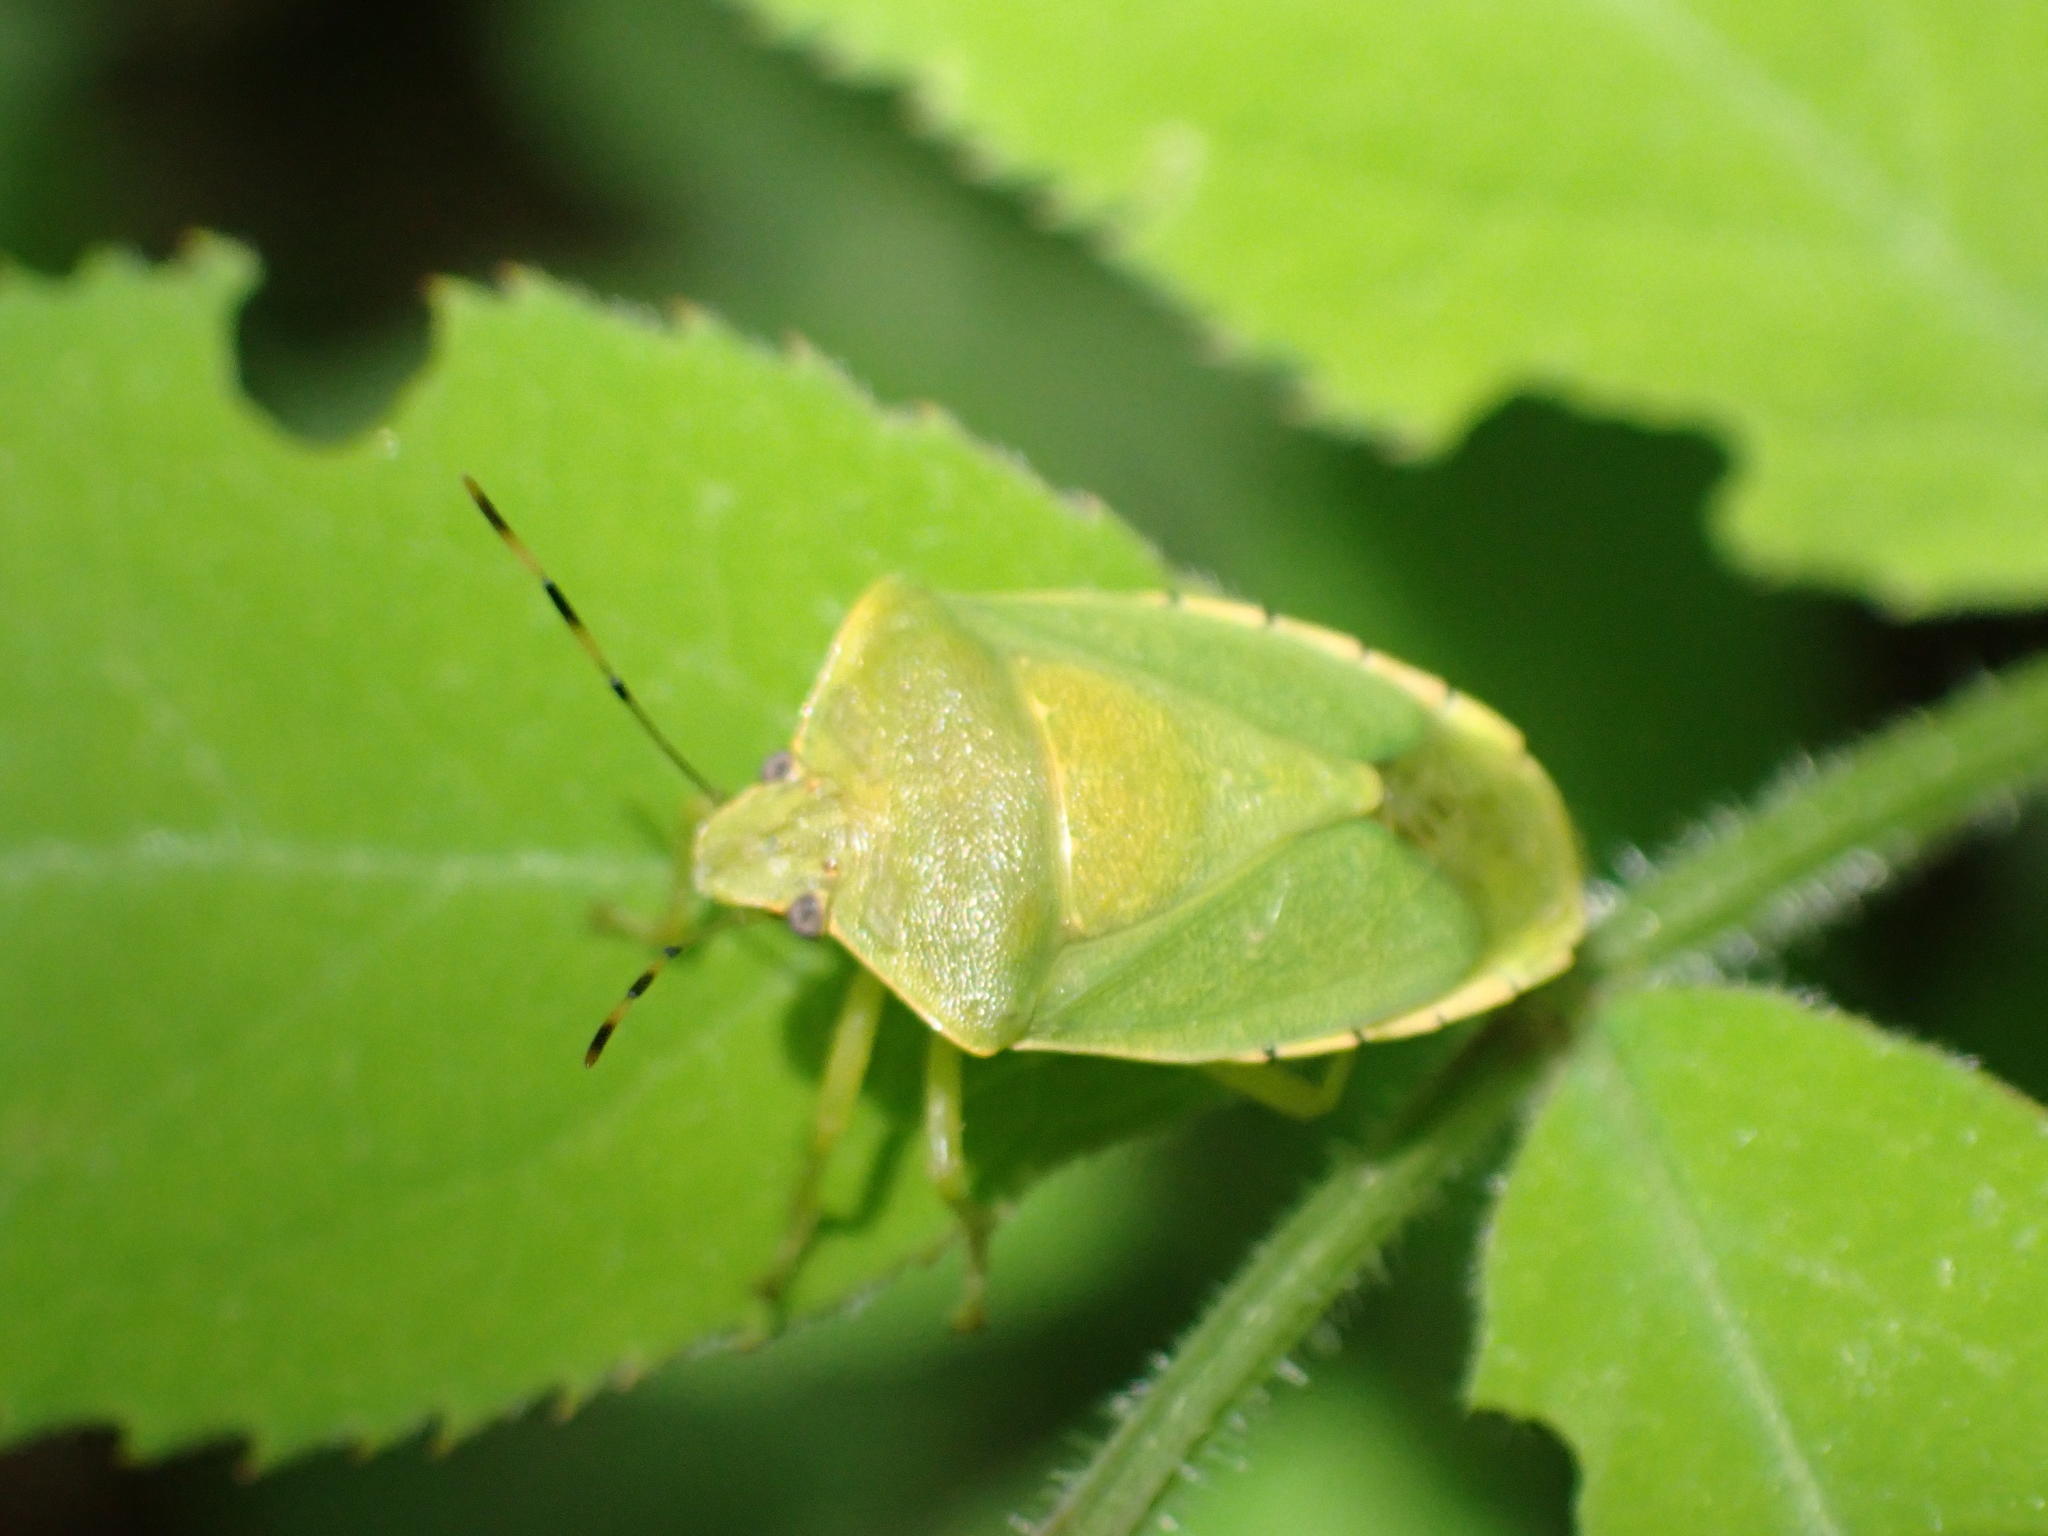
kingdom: Animalia
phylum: Arthropoda
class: Insecta
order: Hemiptera
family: Pentatomidae
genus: Chinavia
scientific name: Chinavia hilaris
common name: Green stink bug
